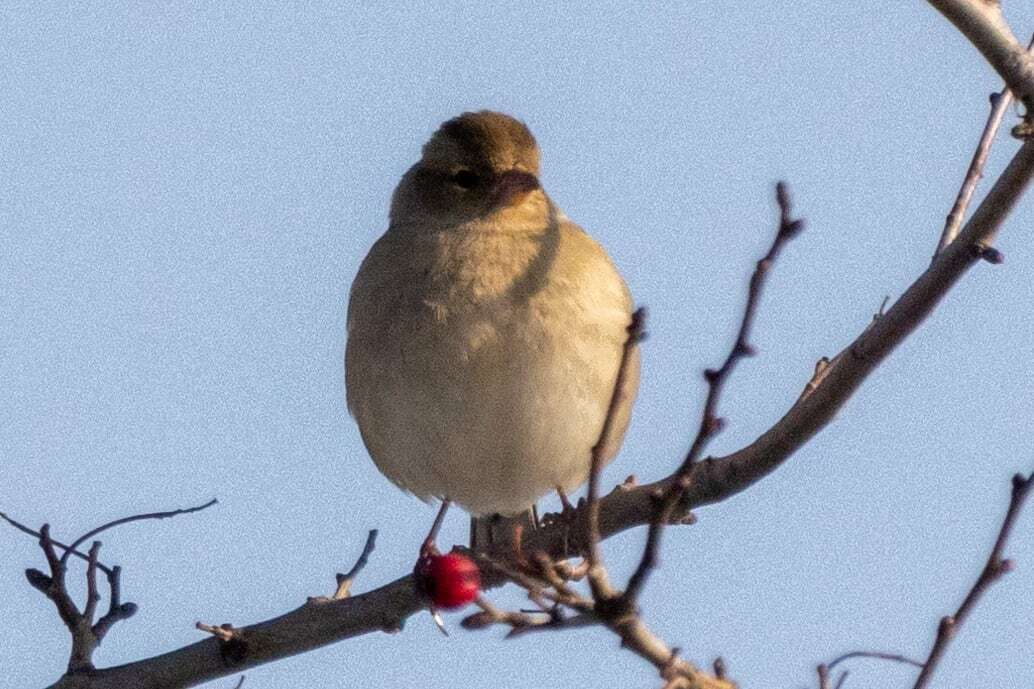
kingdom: Animalia
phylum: Chordata
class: Aves
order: Passeriformes
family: Fringillidae
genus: Fringilla
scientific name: Fringilla coelebs
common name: Common chaffinch
